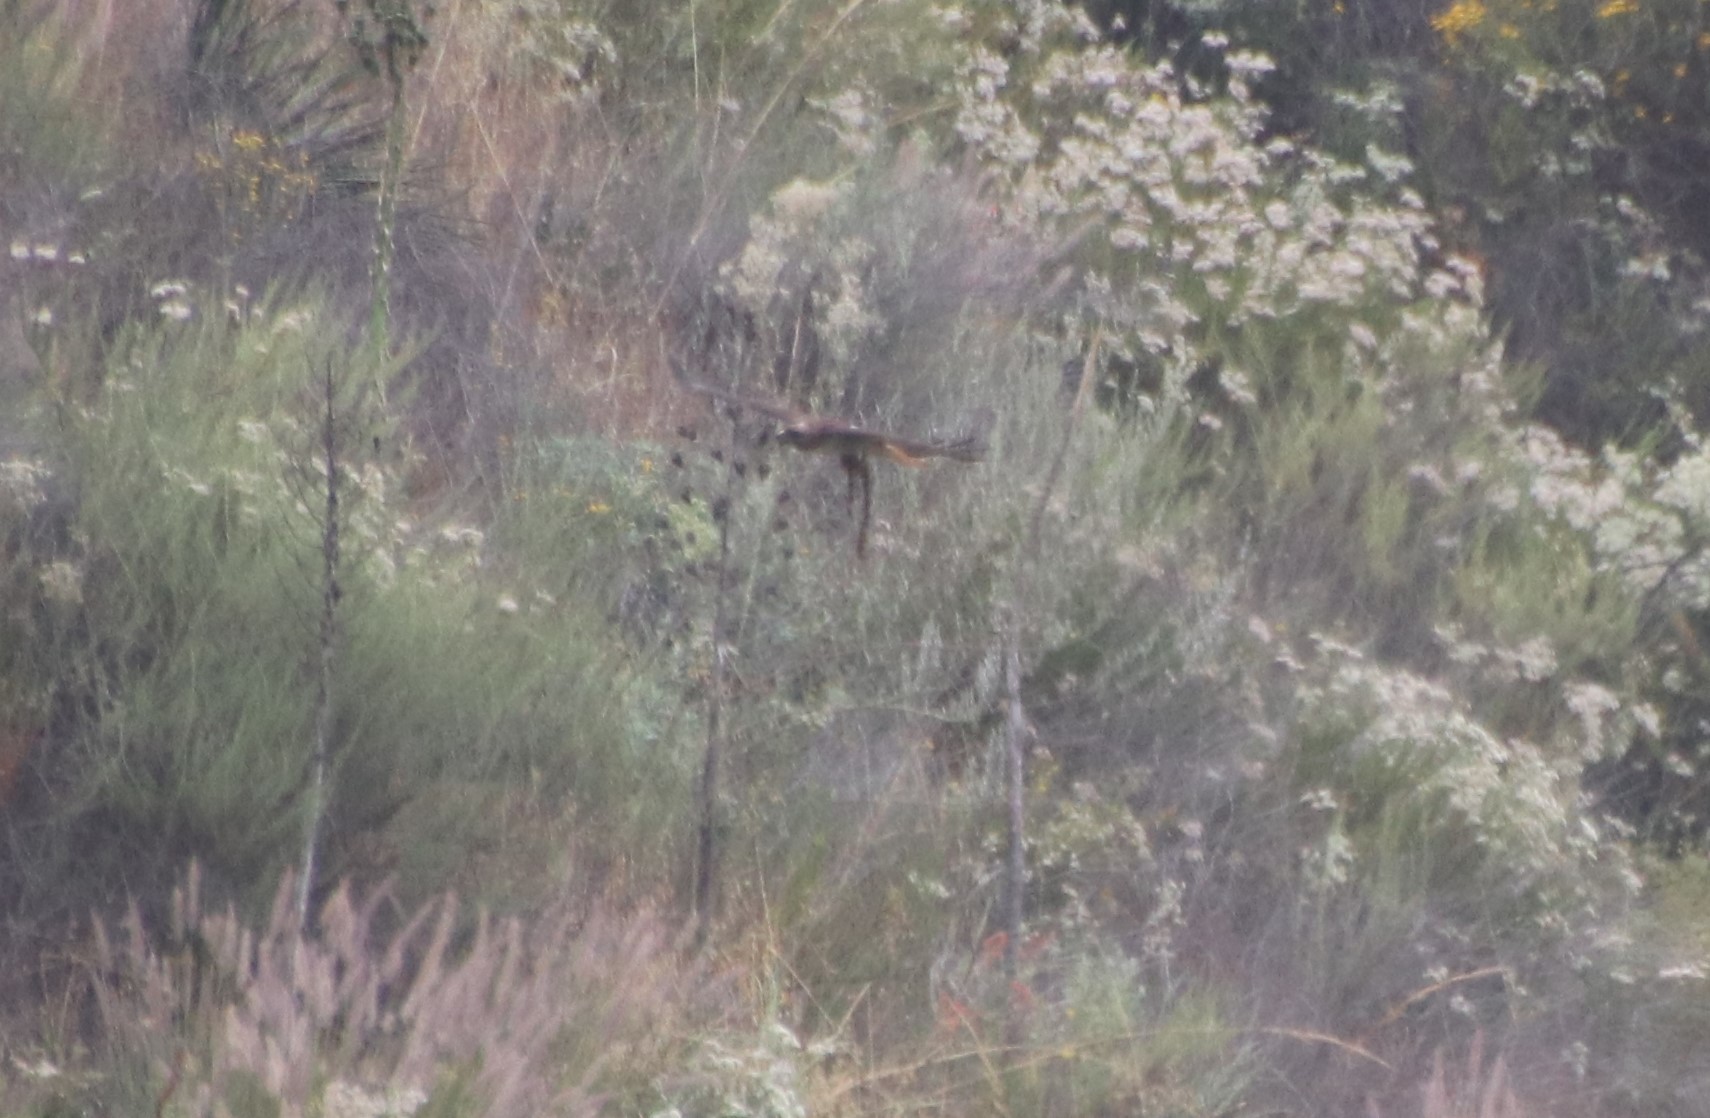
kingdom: Animalia
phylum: Chordata
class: Aves
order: Accipitriformes
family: Accipitridae
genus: Buteo
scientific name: Buteo jamaicensis
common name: Red-tailed hawk
